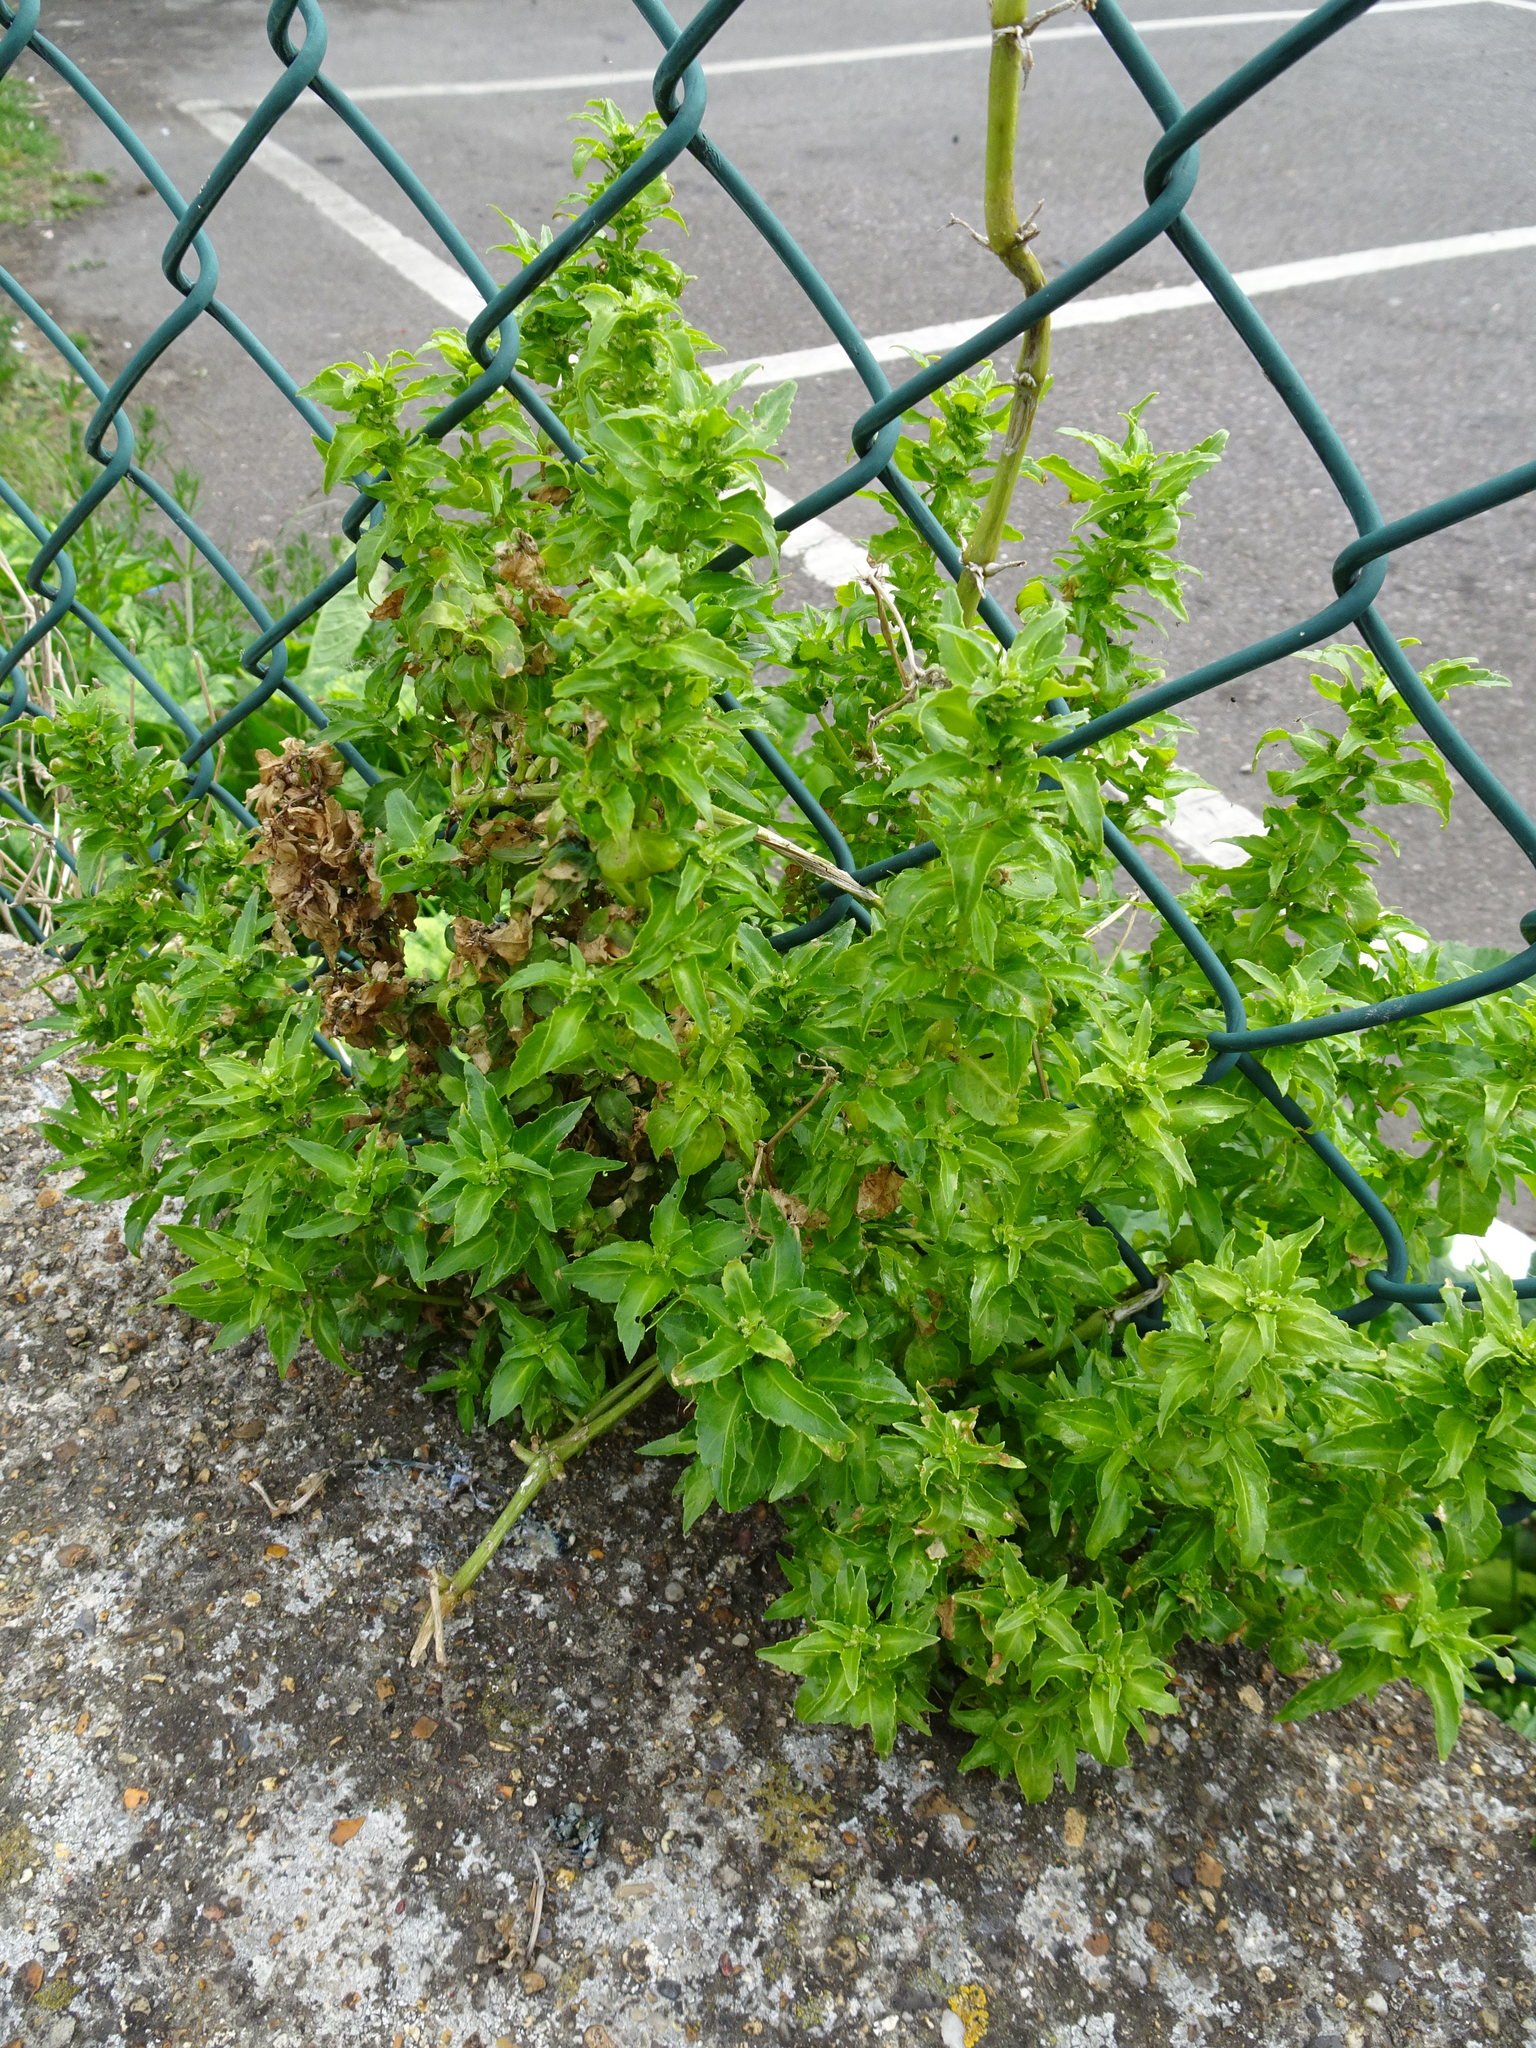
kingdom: Plantae
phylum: Tracheophyta
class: Magnoliopsida
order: Malpighiales
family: Euphorbiaceae
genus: Mercurialis
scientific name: Mercurialis annua
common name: Annual mercury
